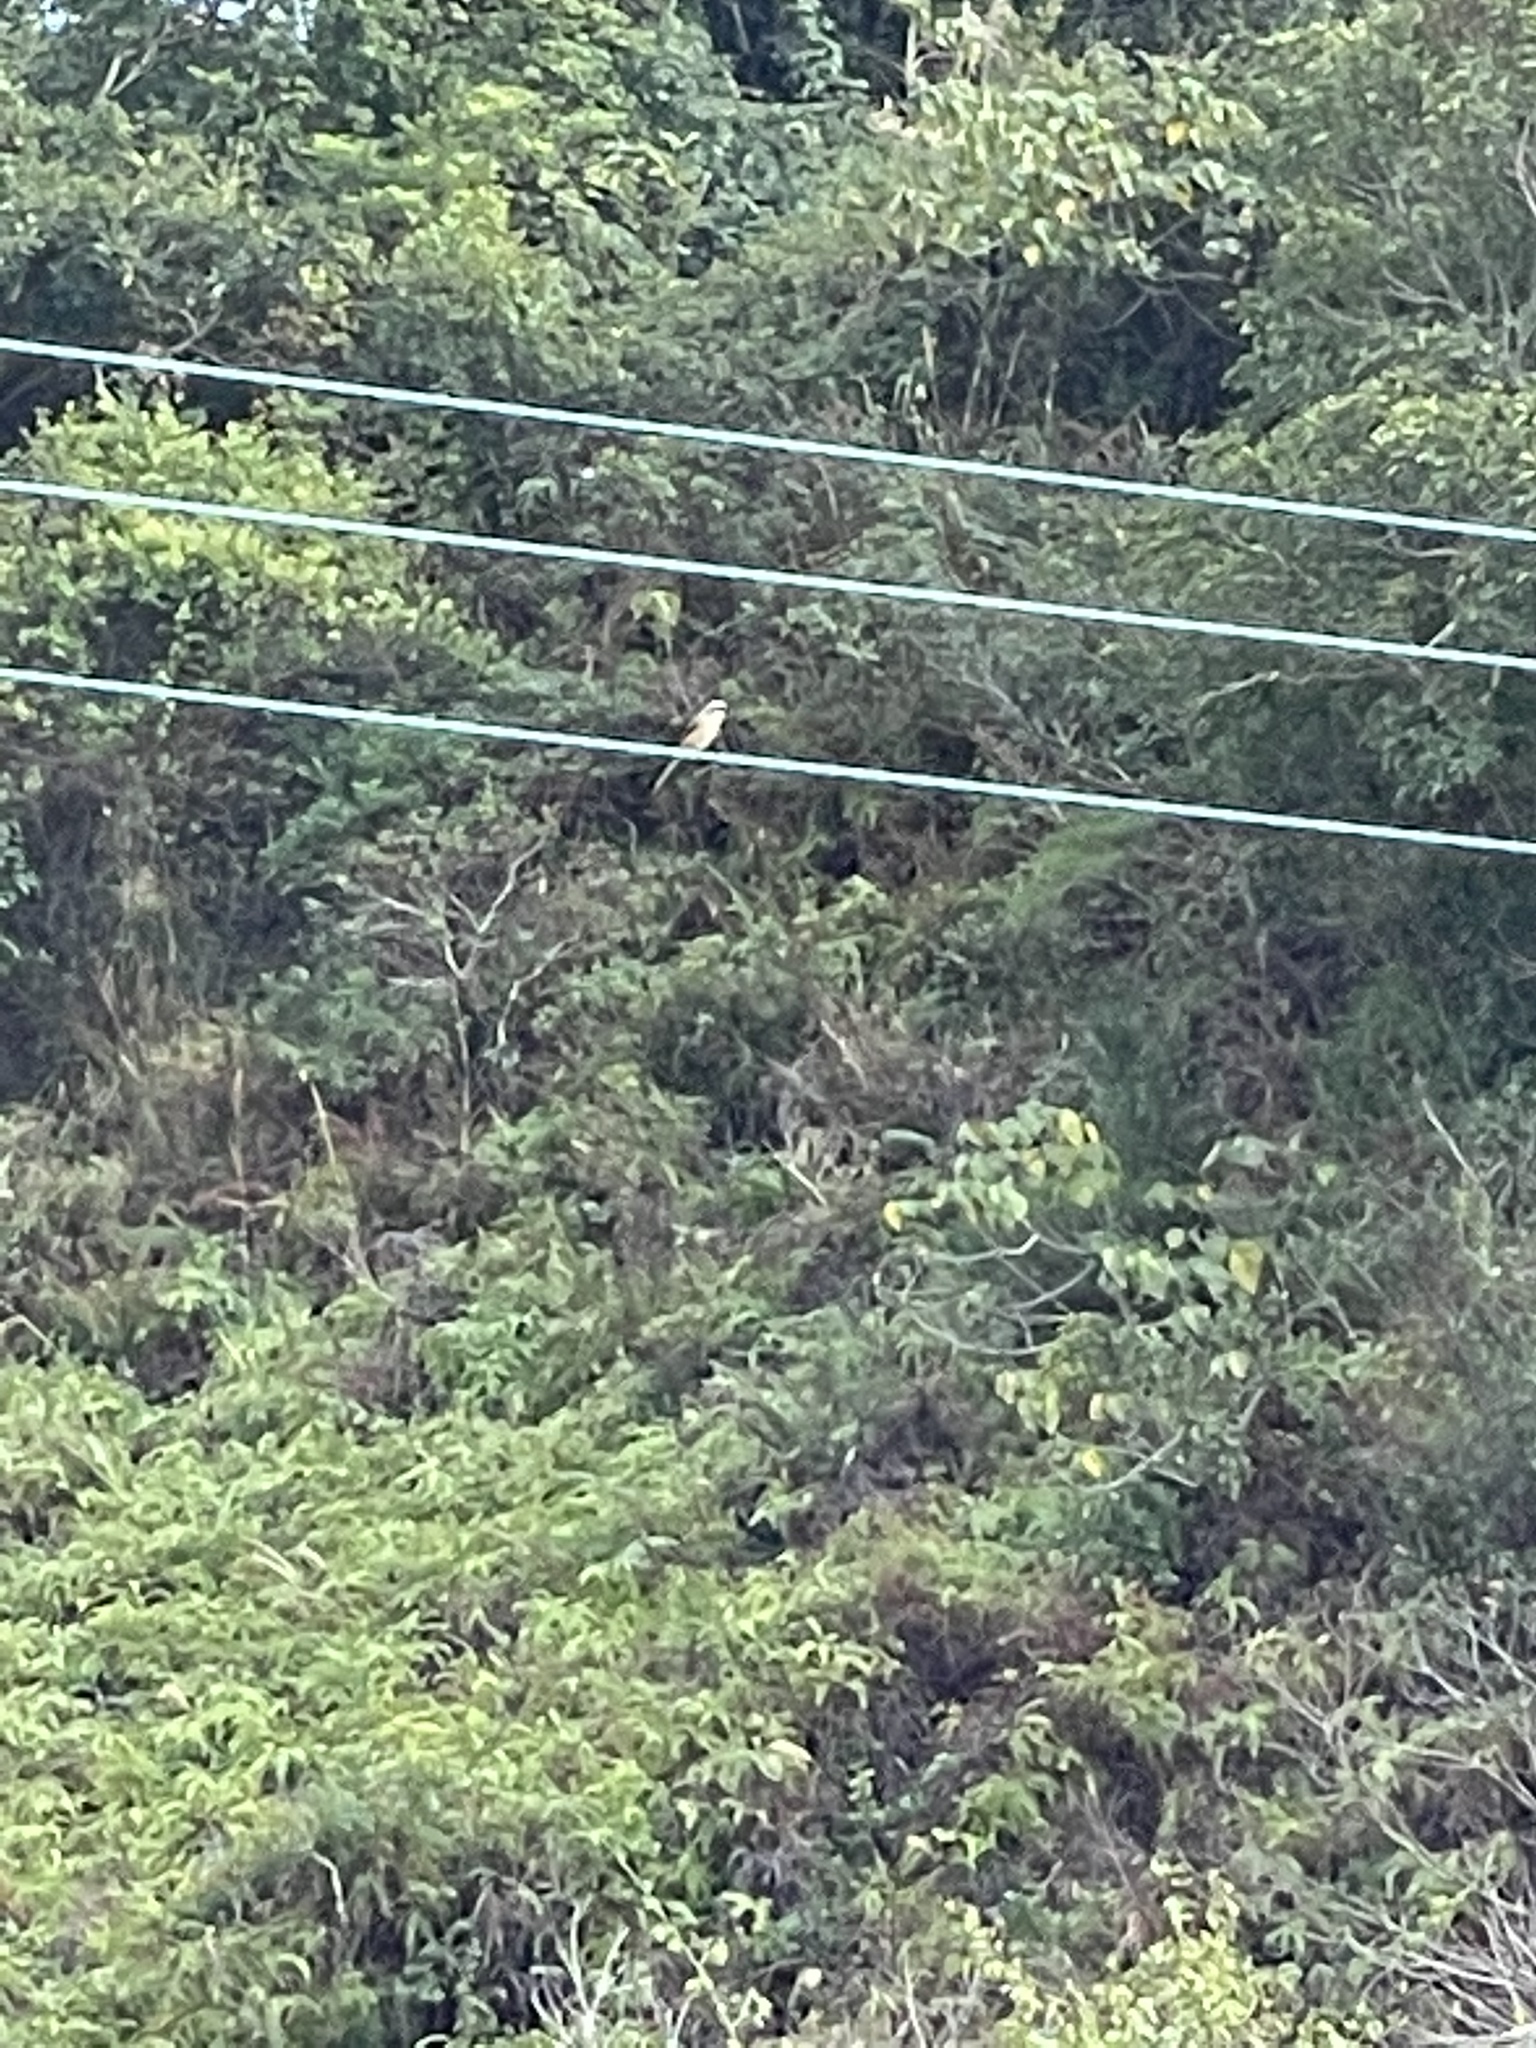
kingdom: Animalia
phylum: Chordata
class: Aves
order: Passeriformes
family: Laniidae
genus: Lanius
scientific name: Lanius schach
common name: Long-tailed shrike
